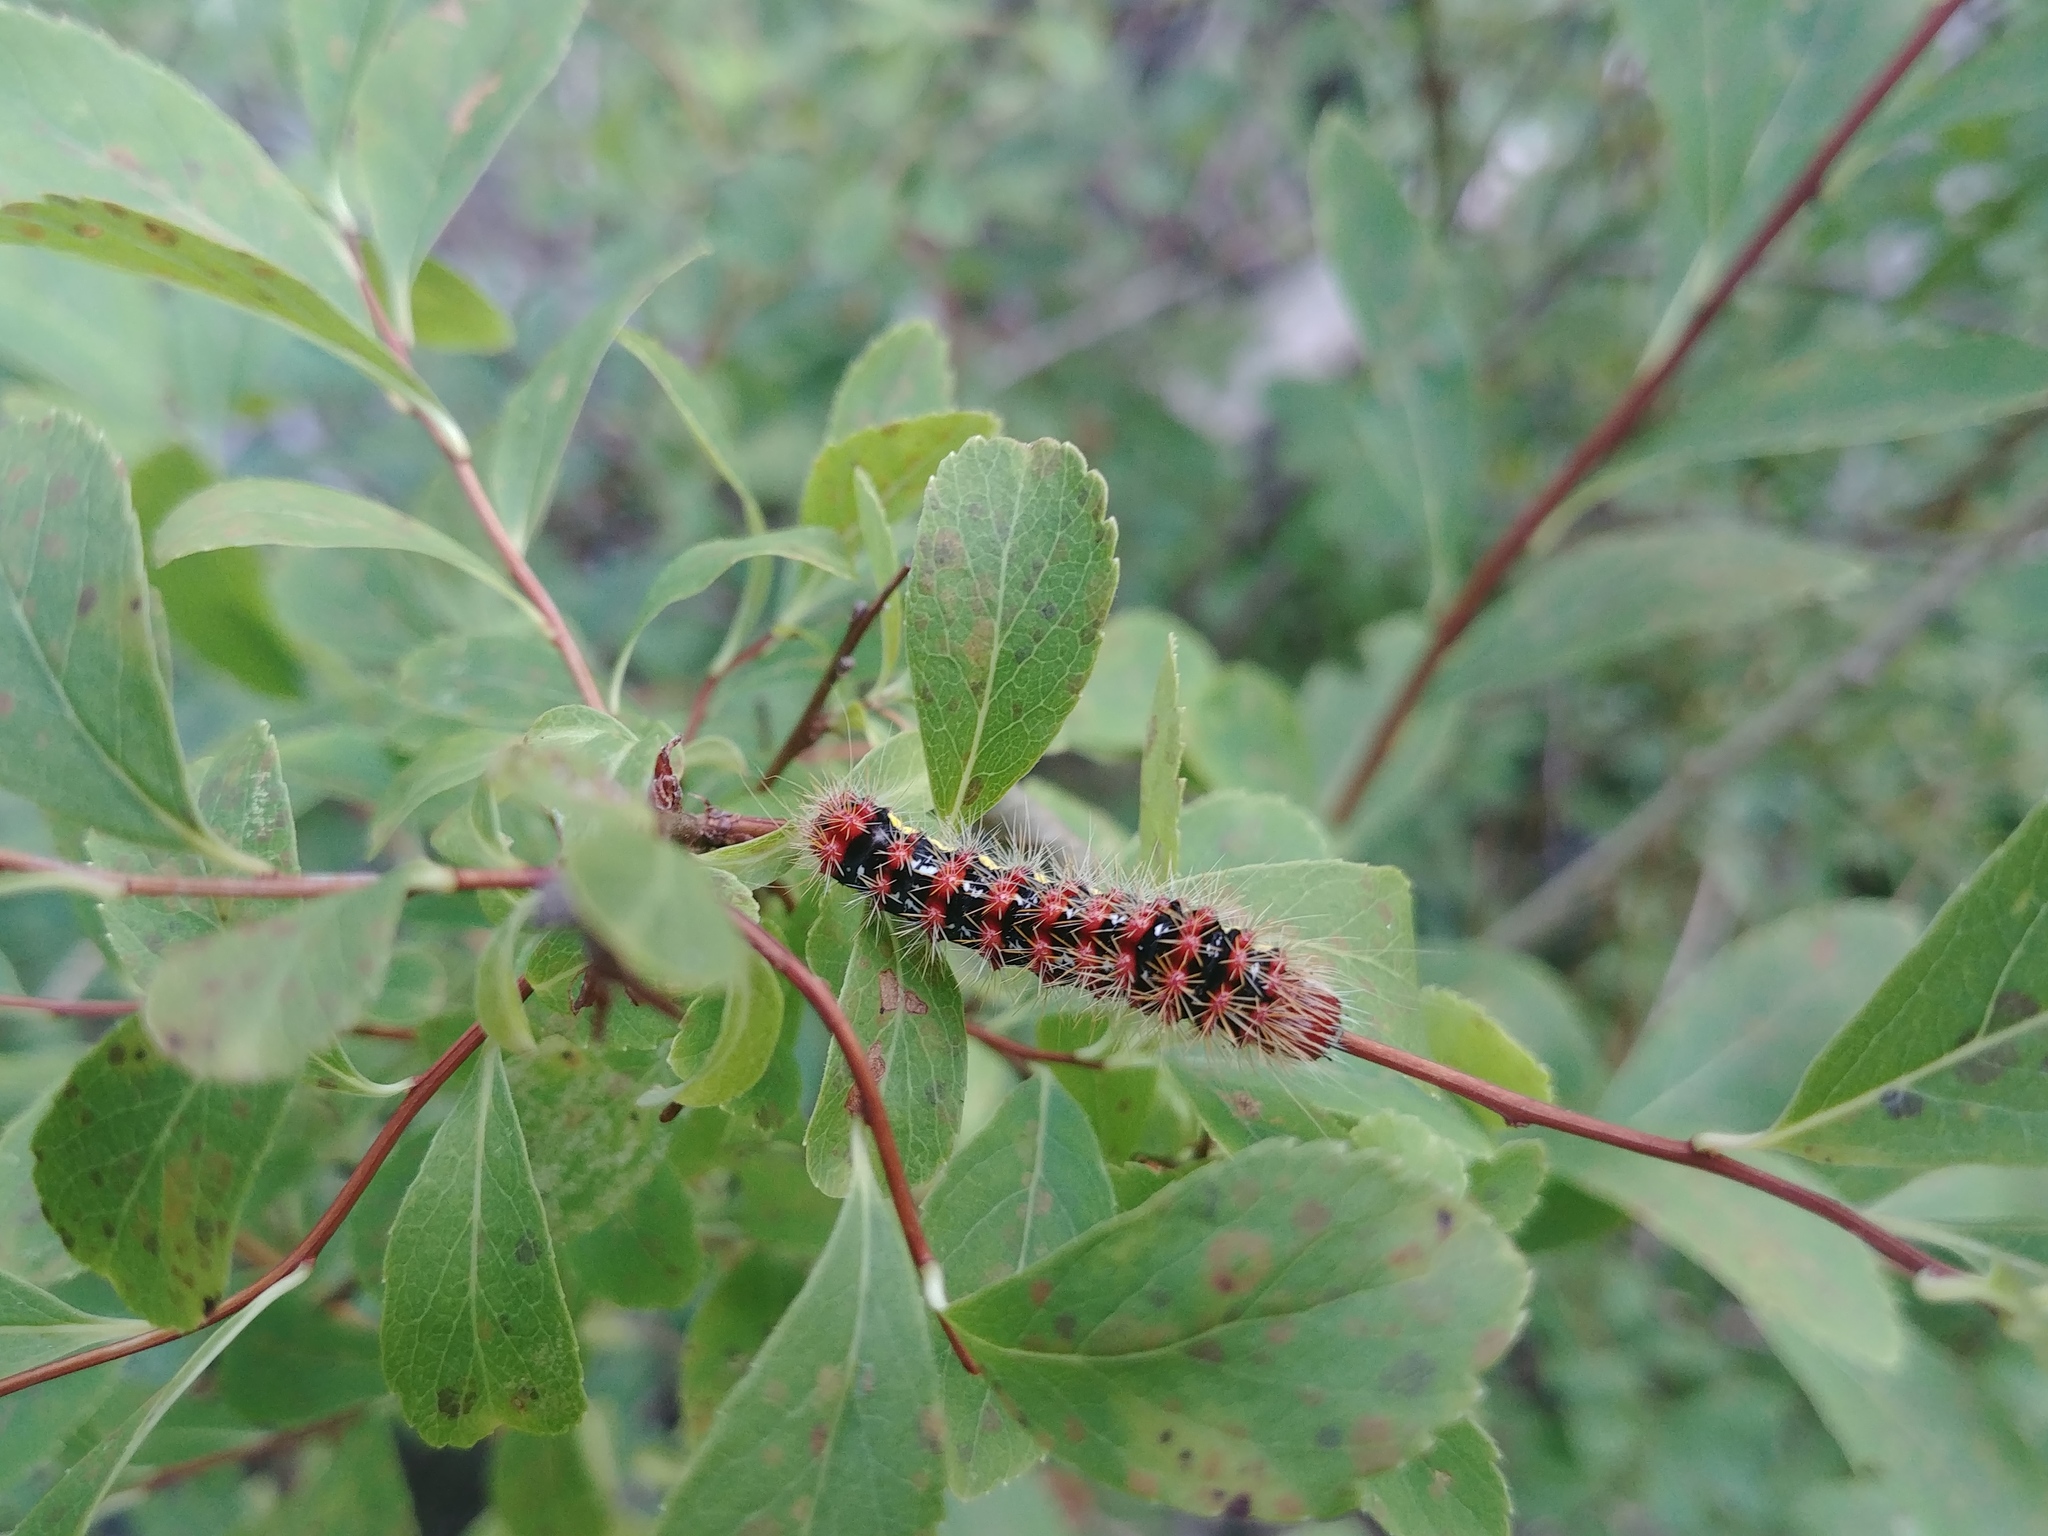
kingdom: Animalia
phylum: Arthropoda
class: Insecta
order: Lepidoptera
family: Noctuidae
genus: Acronicta
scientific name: Acronicta oblinita
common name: Smeared dagger
